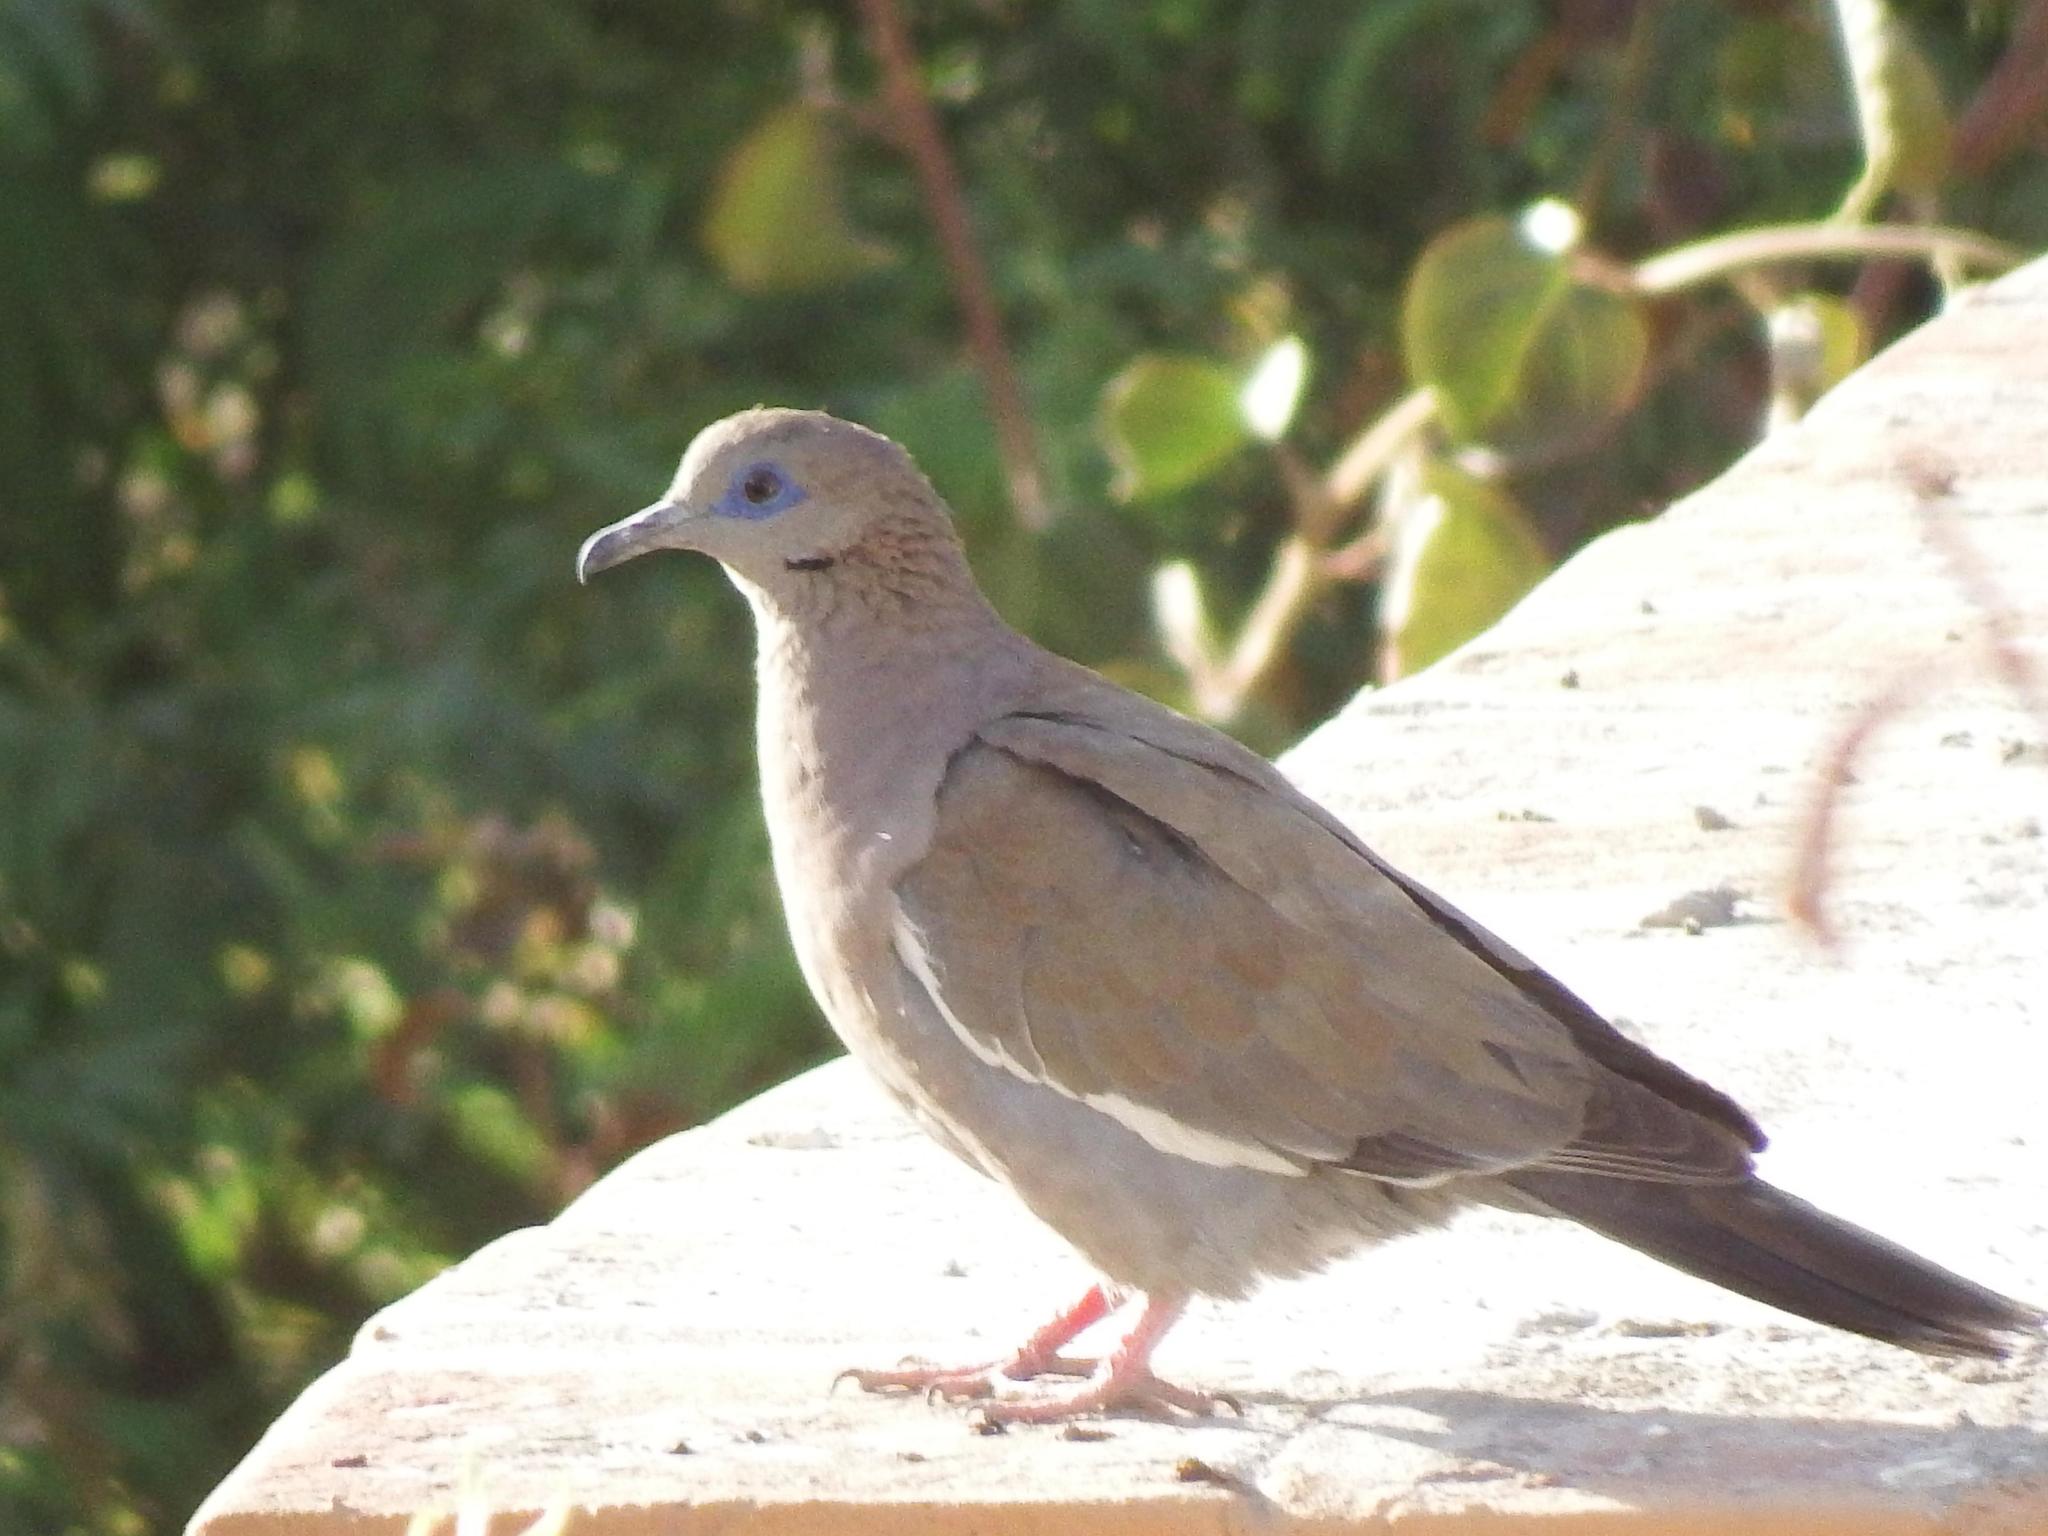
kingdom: Animalia
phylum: Chordata
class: Aves
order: Columbiformes
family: Columbidae
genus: Zenaida
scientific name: Zenaida meloda
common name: West peruvian dove
